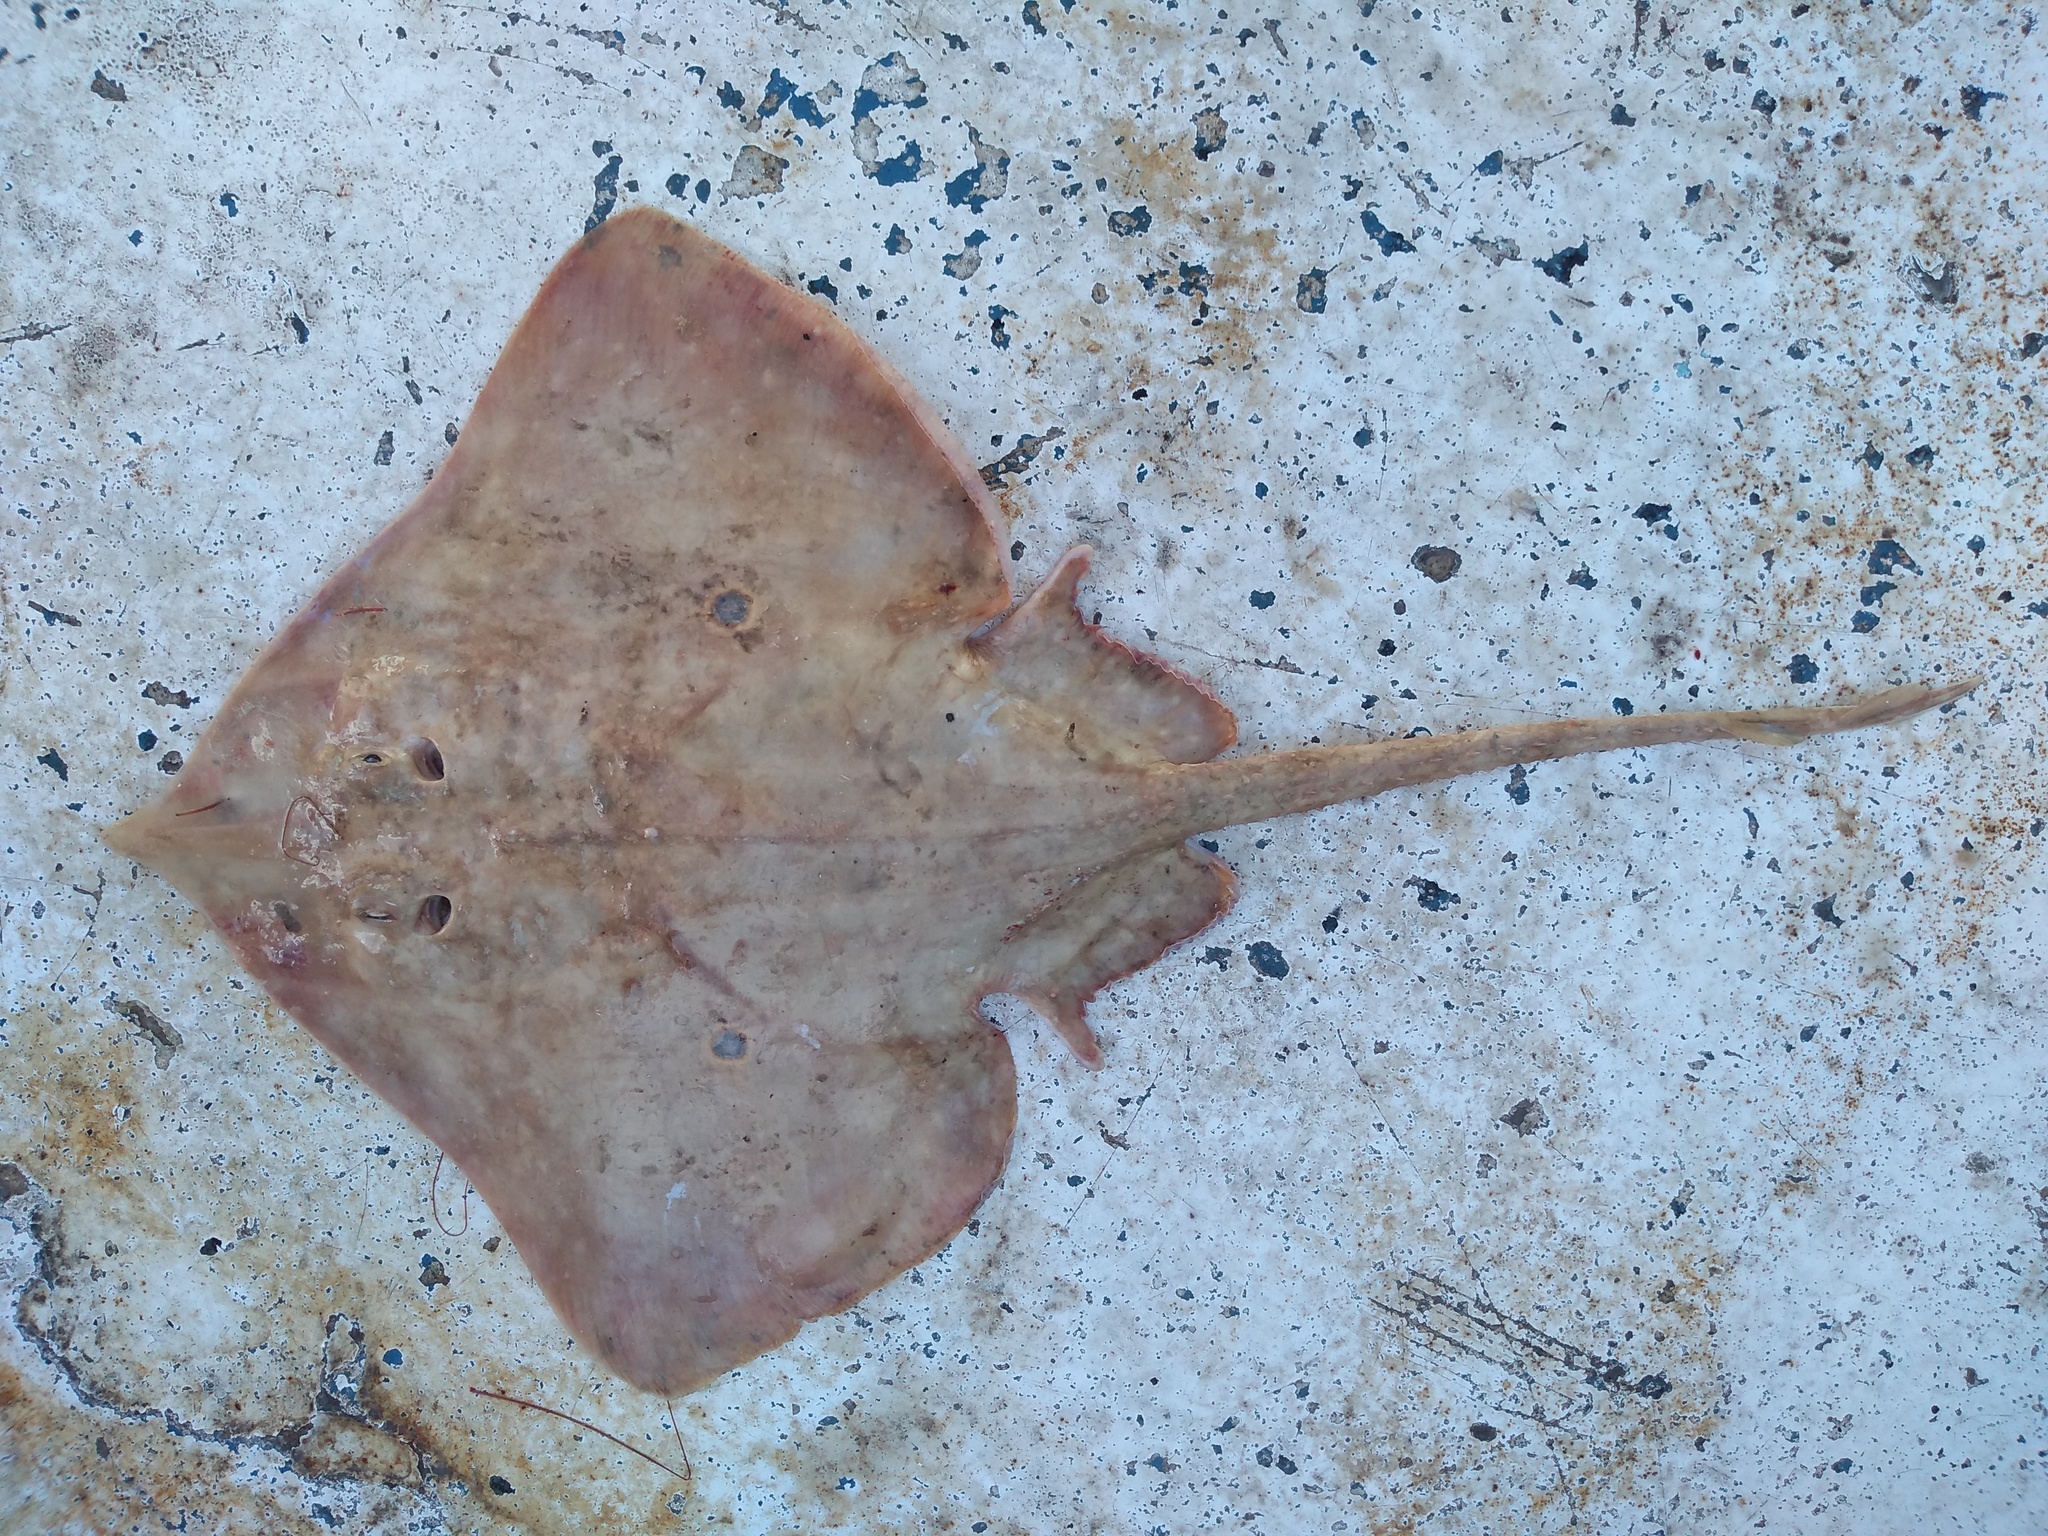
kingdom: Animalia
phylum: Chordata
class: Elasmobranchii
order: Rajiformes
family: Rajidae
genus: Rostroraja
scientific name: Rostroraja texana
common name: Roundel skate
